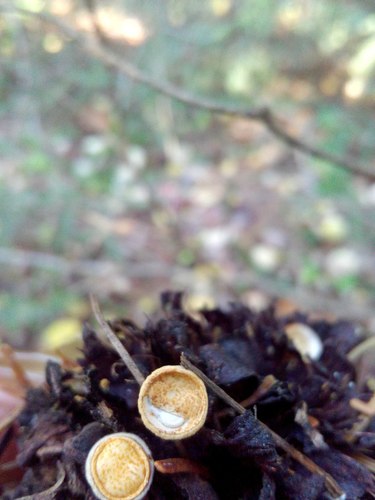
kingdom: Fungi
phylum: Basidiomycota
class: Agaricomycetes
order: Agaricales
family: Nidulariaceae
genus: Crucibulum
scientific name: Crucibulum laeve
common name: Common bird's nest
